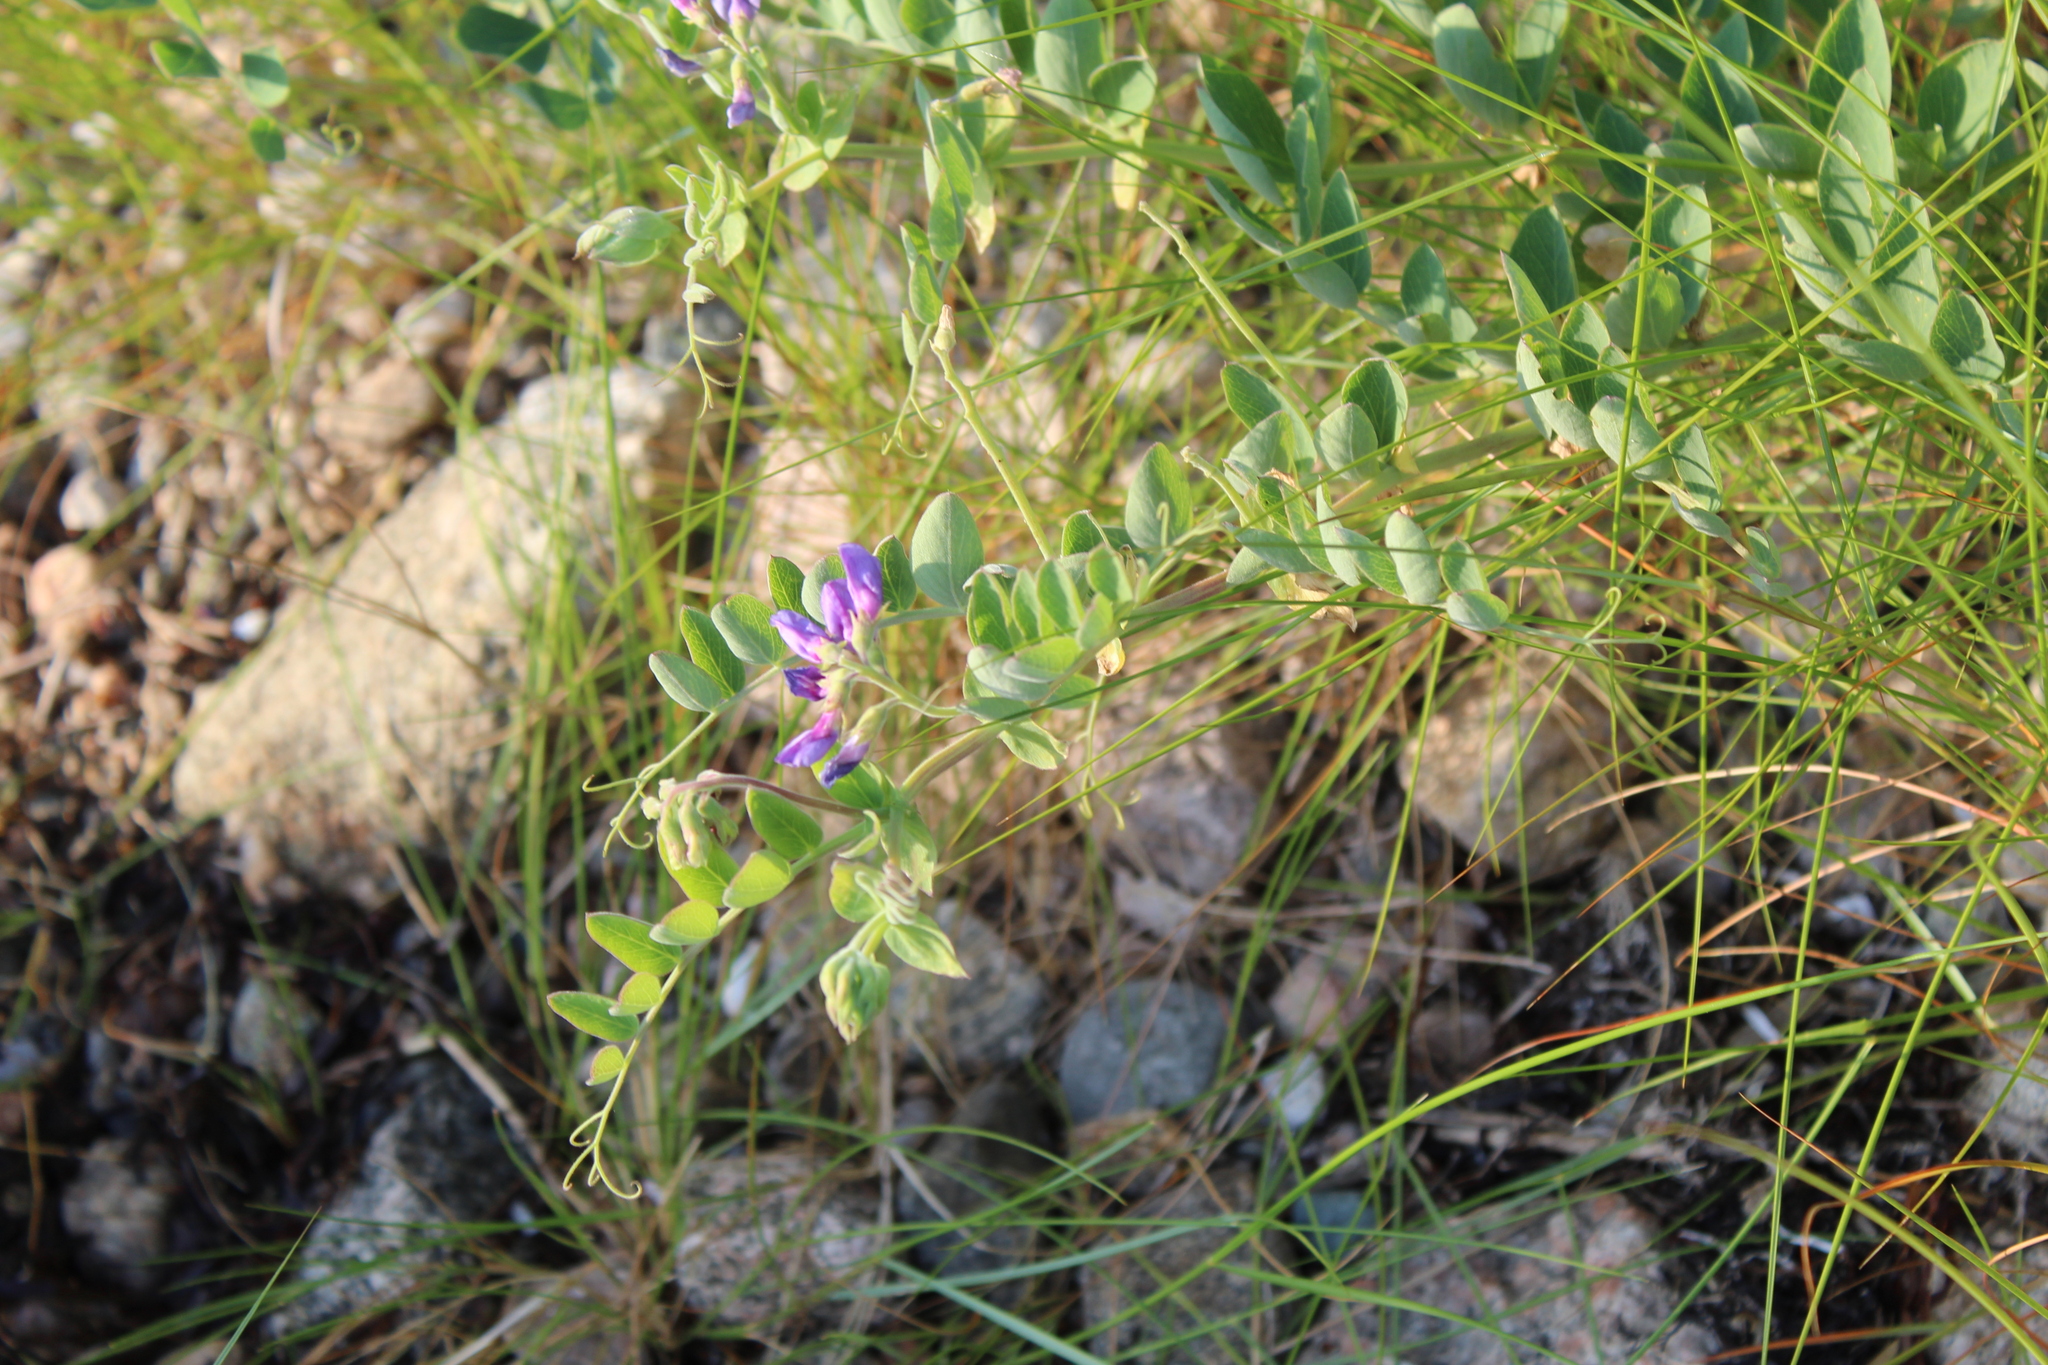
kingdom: Plantae
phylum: Tracheophyta
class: Magnoliopsida
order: Fabales
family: Fabaceae
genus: Lathyrus
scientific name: Lathyrus japonicus
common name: Sea pea
